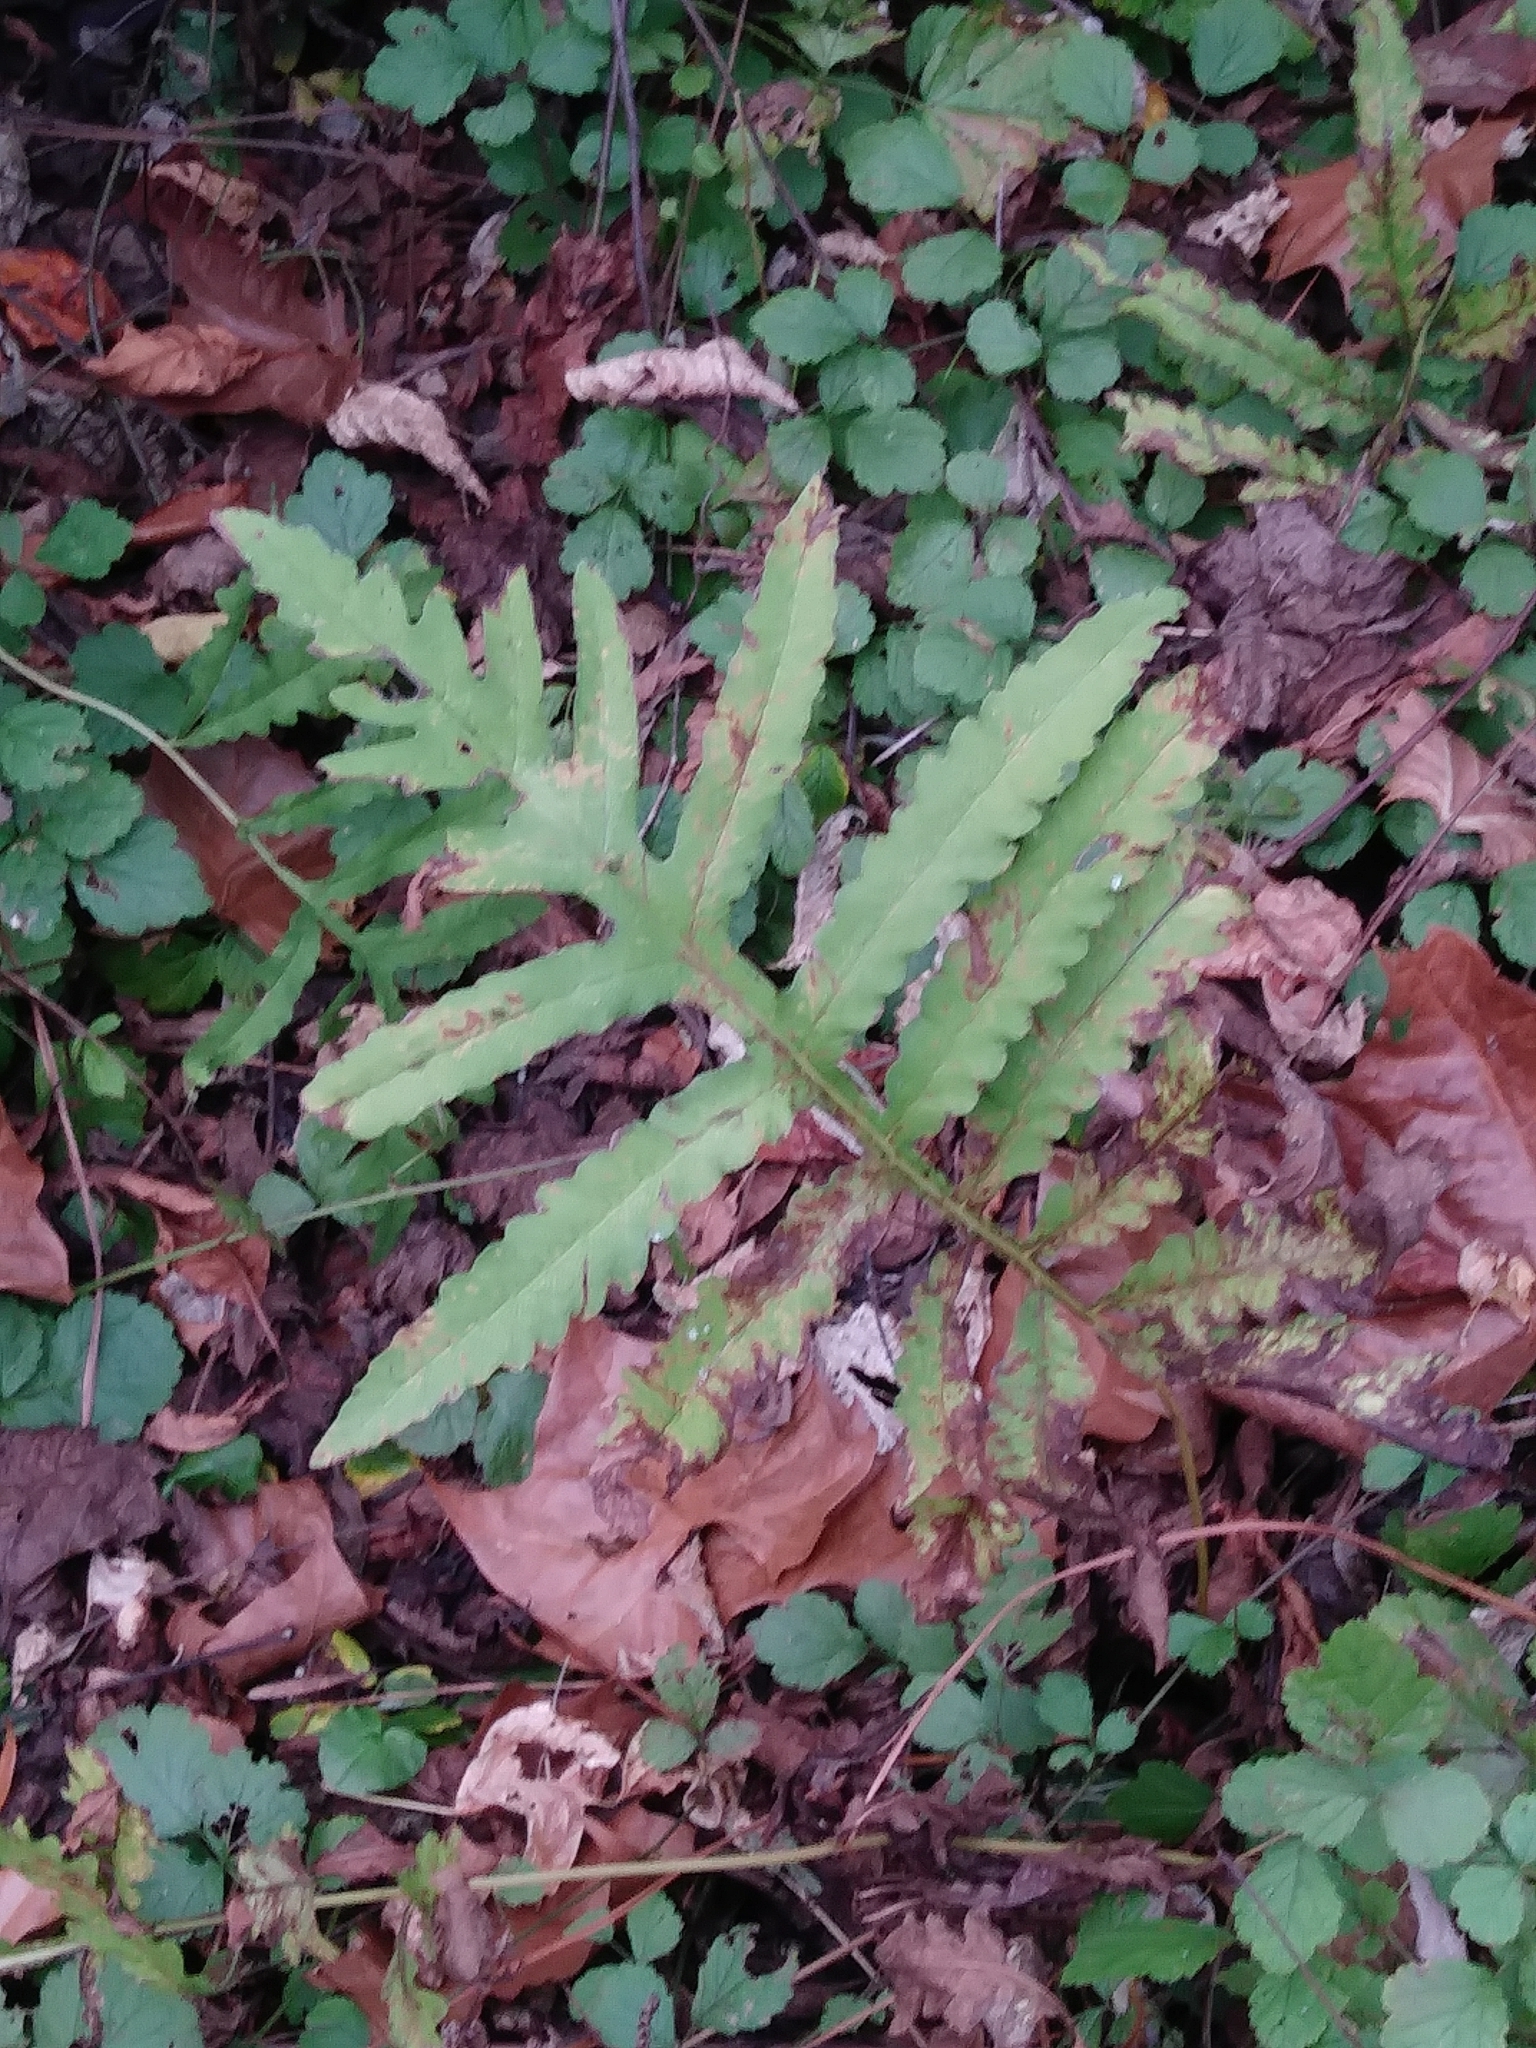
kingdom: Plantae
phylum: Tracheophyta
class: Polypodiopsida
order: Polypodiales
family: Onocleaceae
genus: Onoclea
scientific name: Onoclea sensibilis
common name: Sensitive fern
